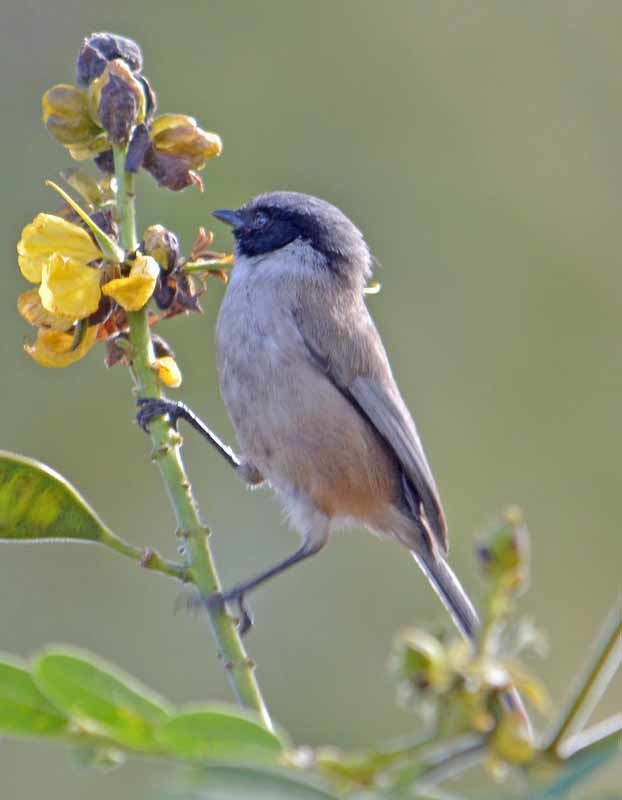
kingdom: Animalia
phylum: Chordata
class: Aves
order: Passeriformes
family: Aegithalidae
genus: Psaltriparus
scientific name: Psaltriparus minimus
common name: American bushtit
